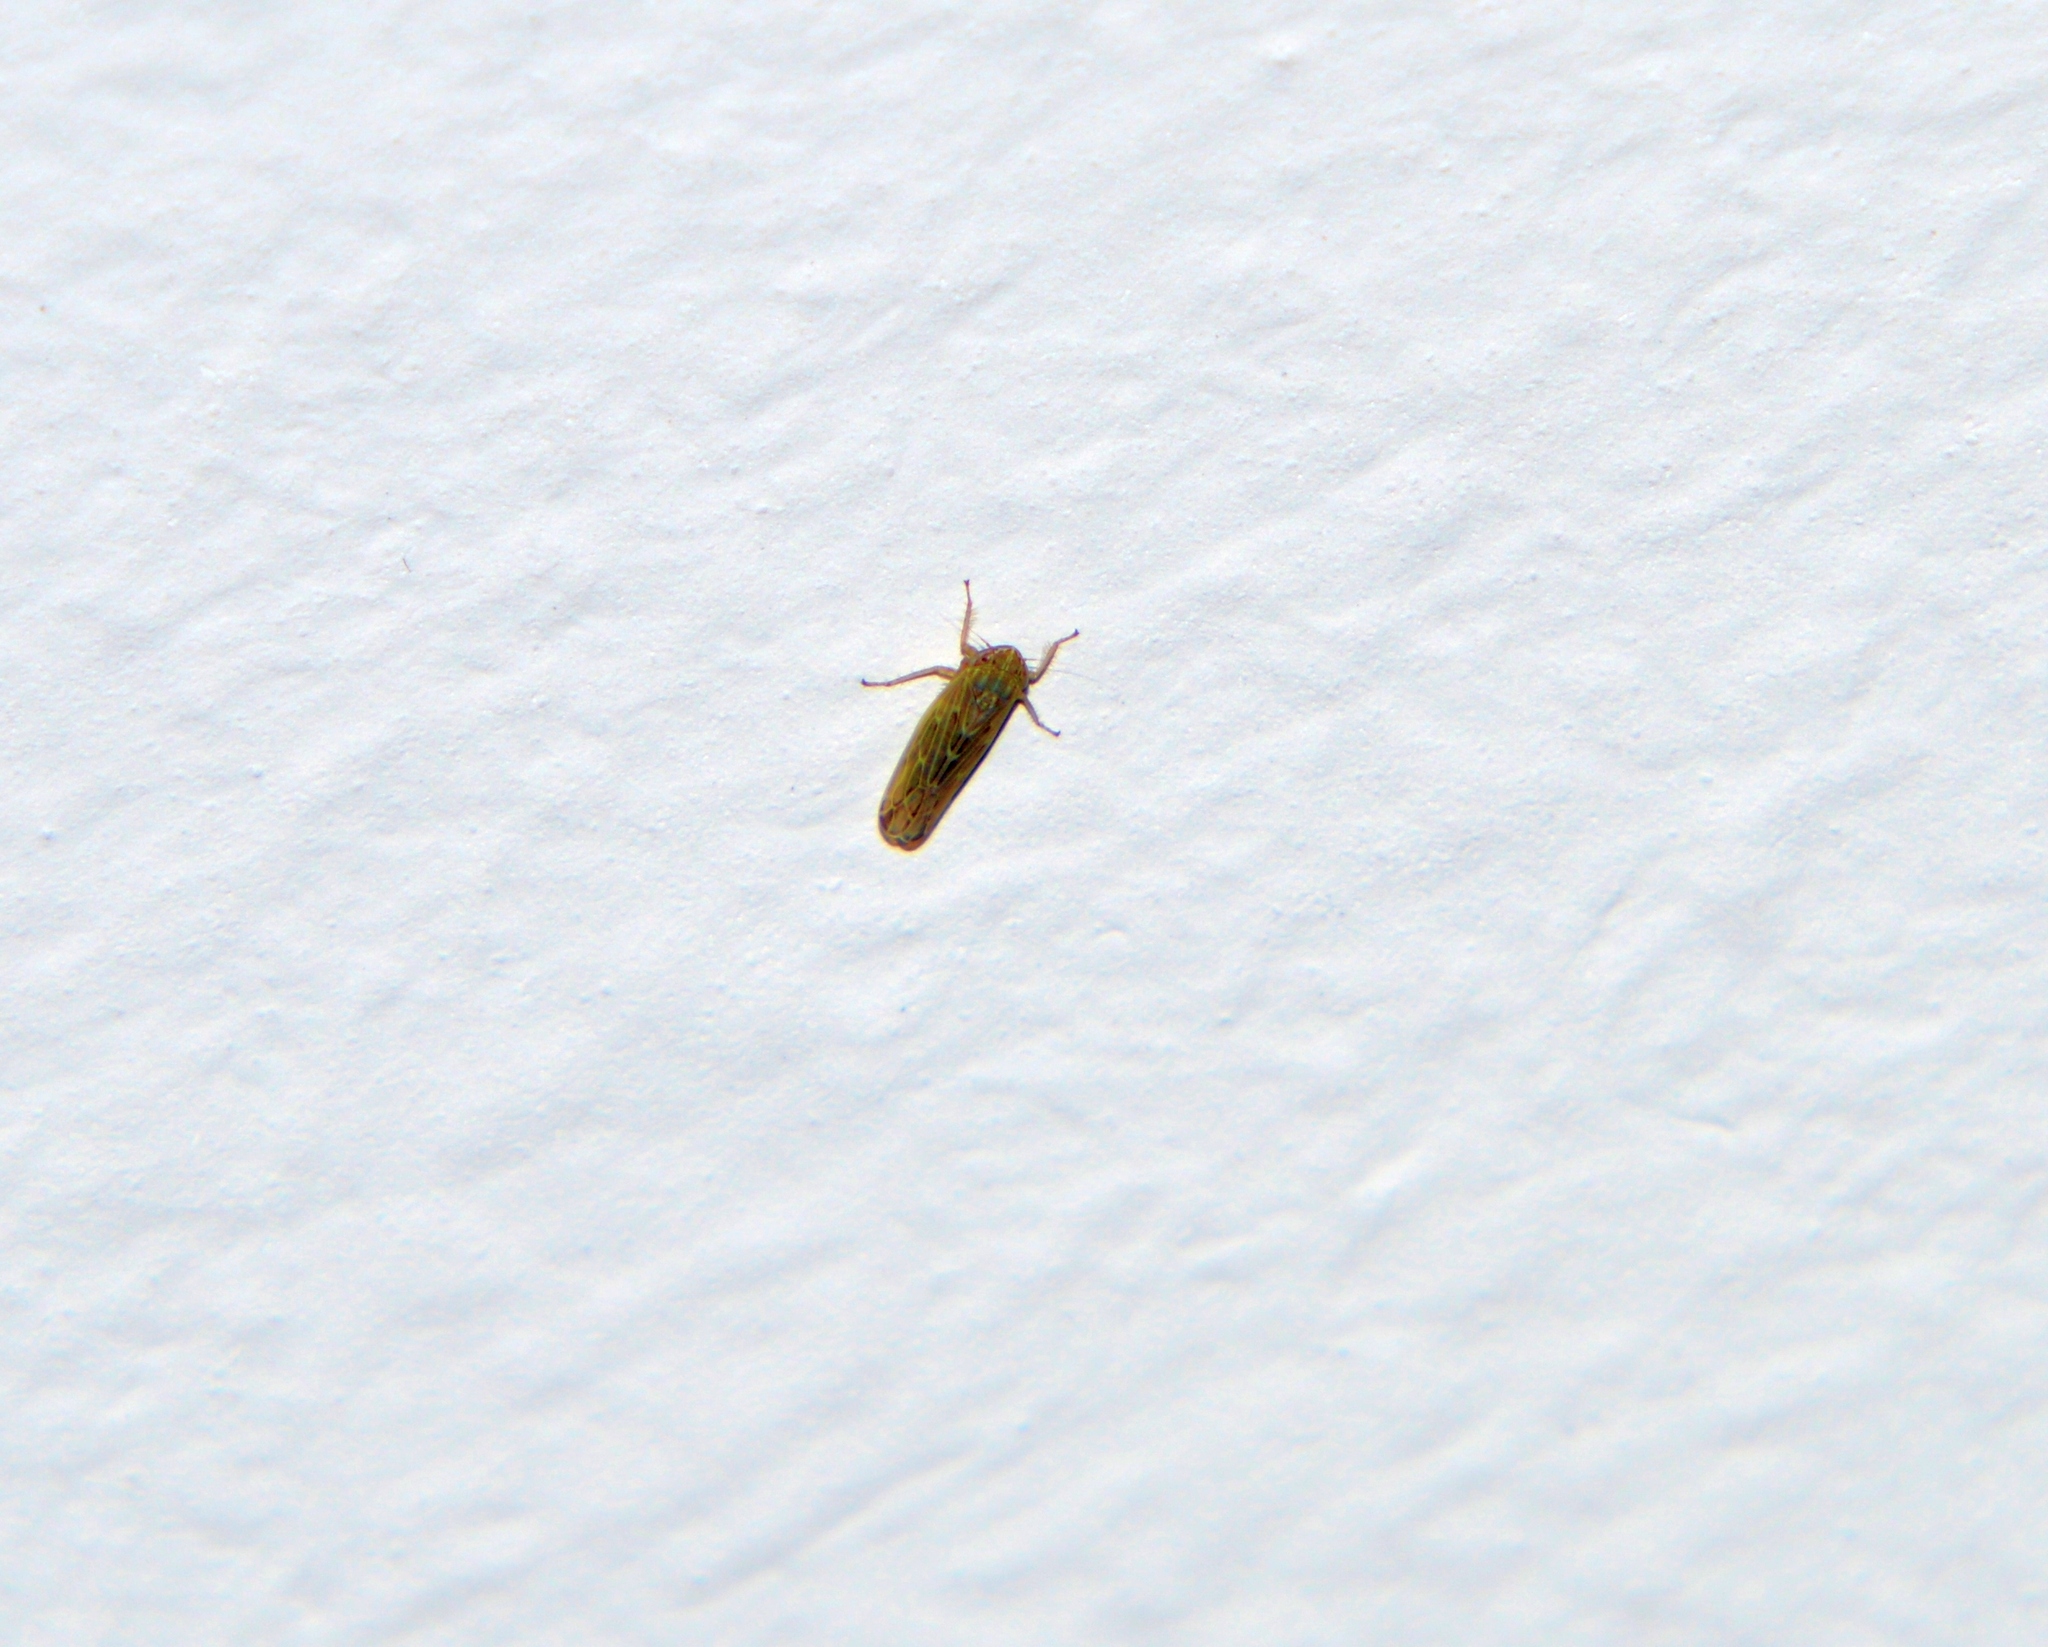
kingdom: Animalia
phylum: Arthropoda
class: Insecta
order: Hemiptera
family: Cicadellidae
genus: Psammotettix
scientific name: Psammotettix
